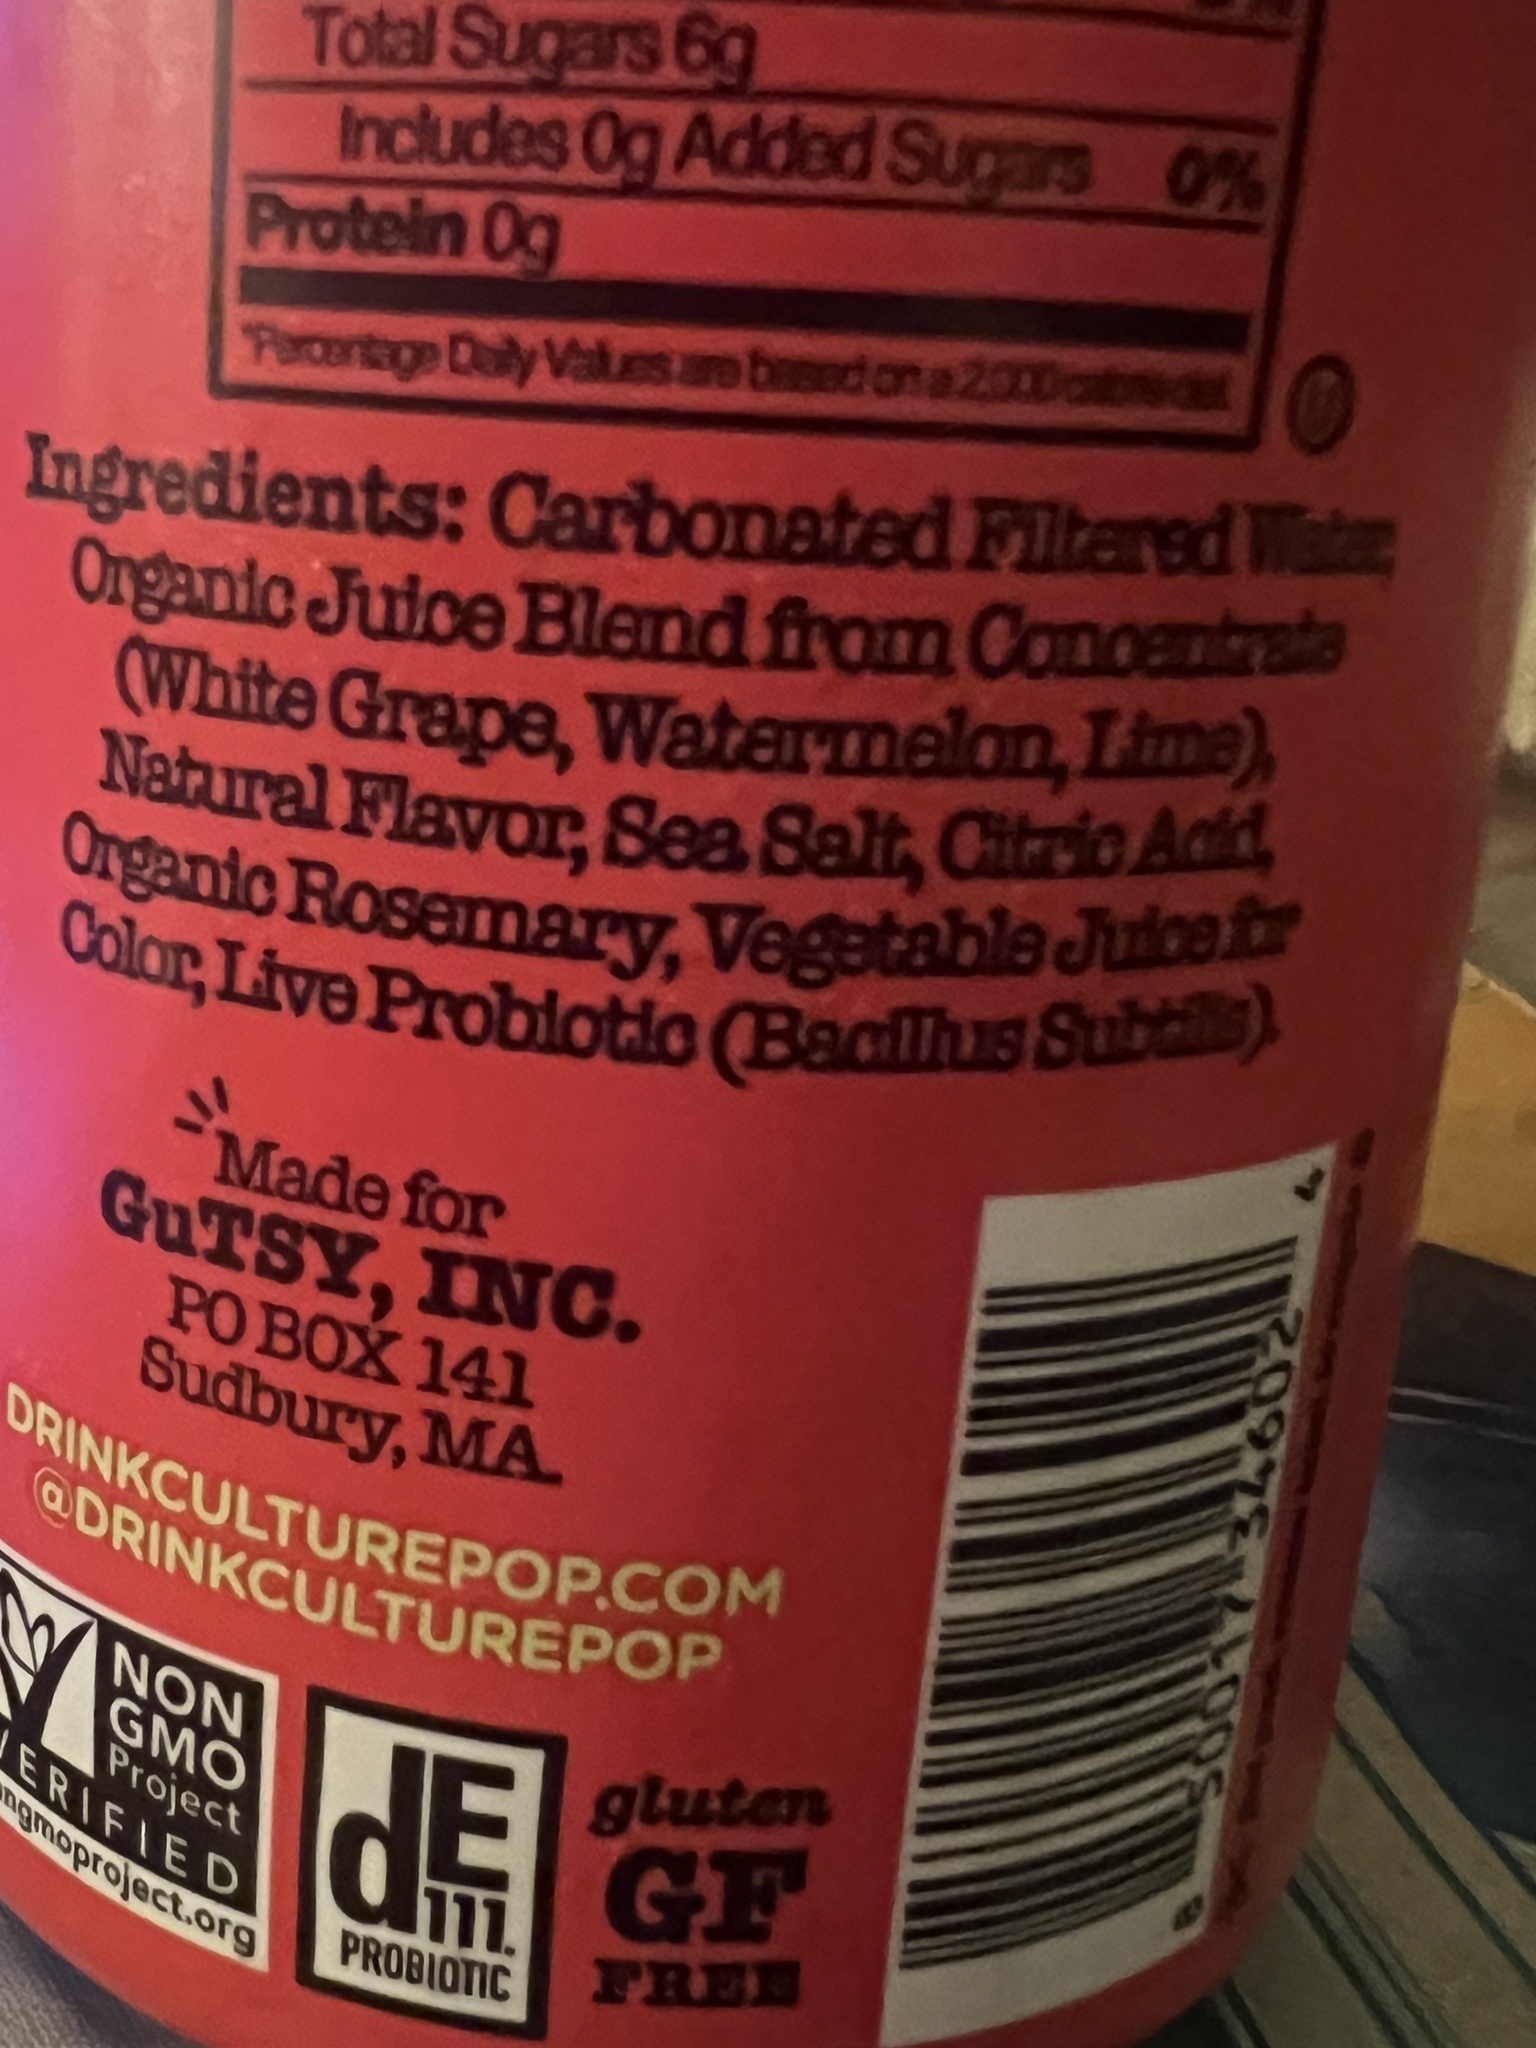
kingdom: Bacteria
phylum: Firmicutes
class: Bacilli
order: Bacillales
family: Bacillaceae
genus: Bacillus
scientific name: Bacillus subtilis
